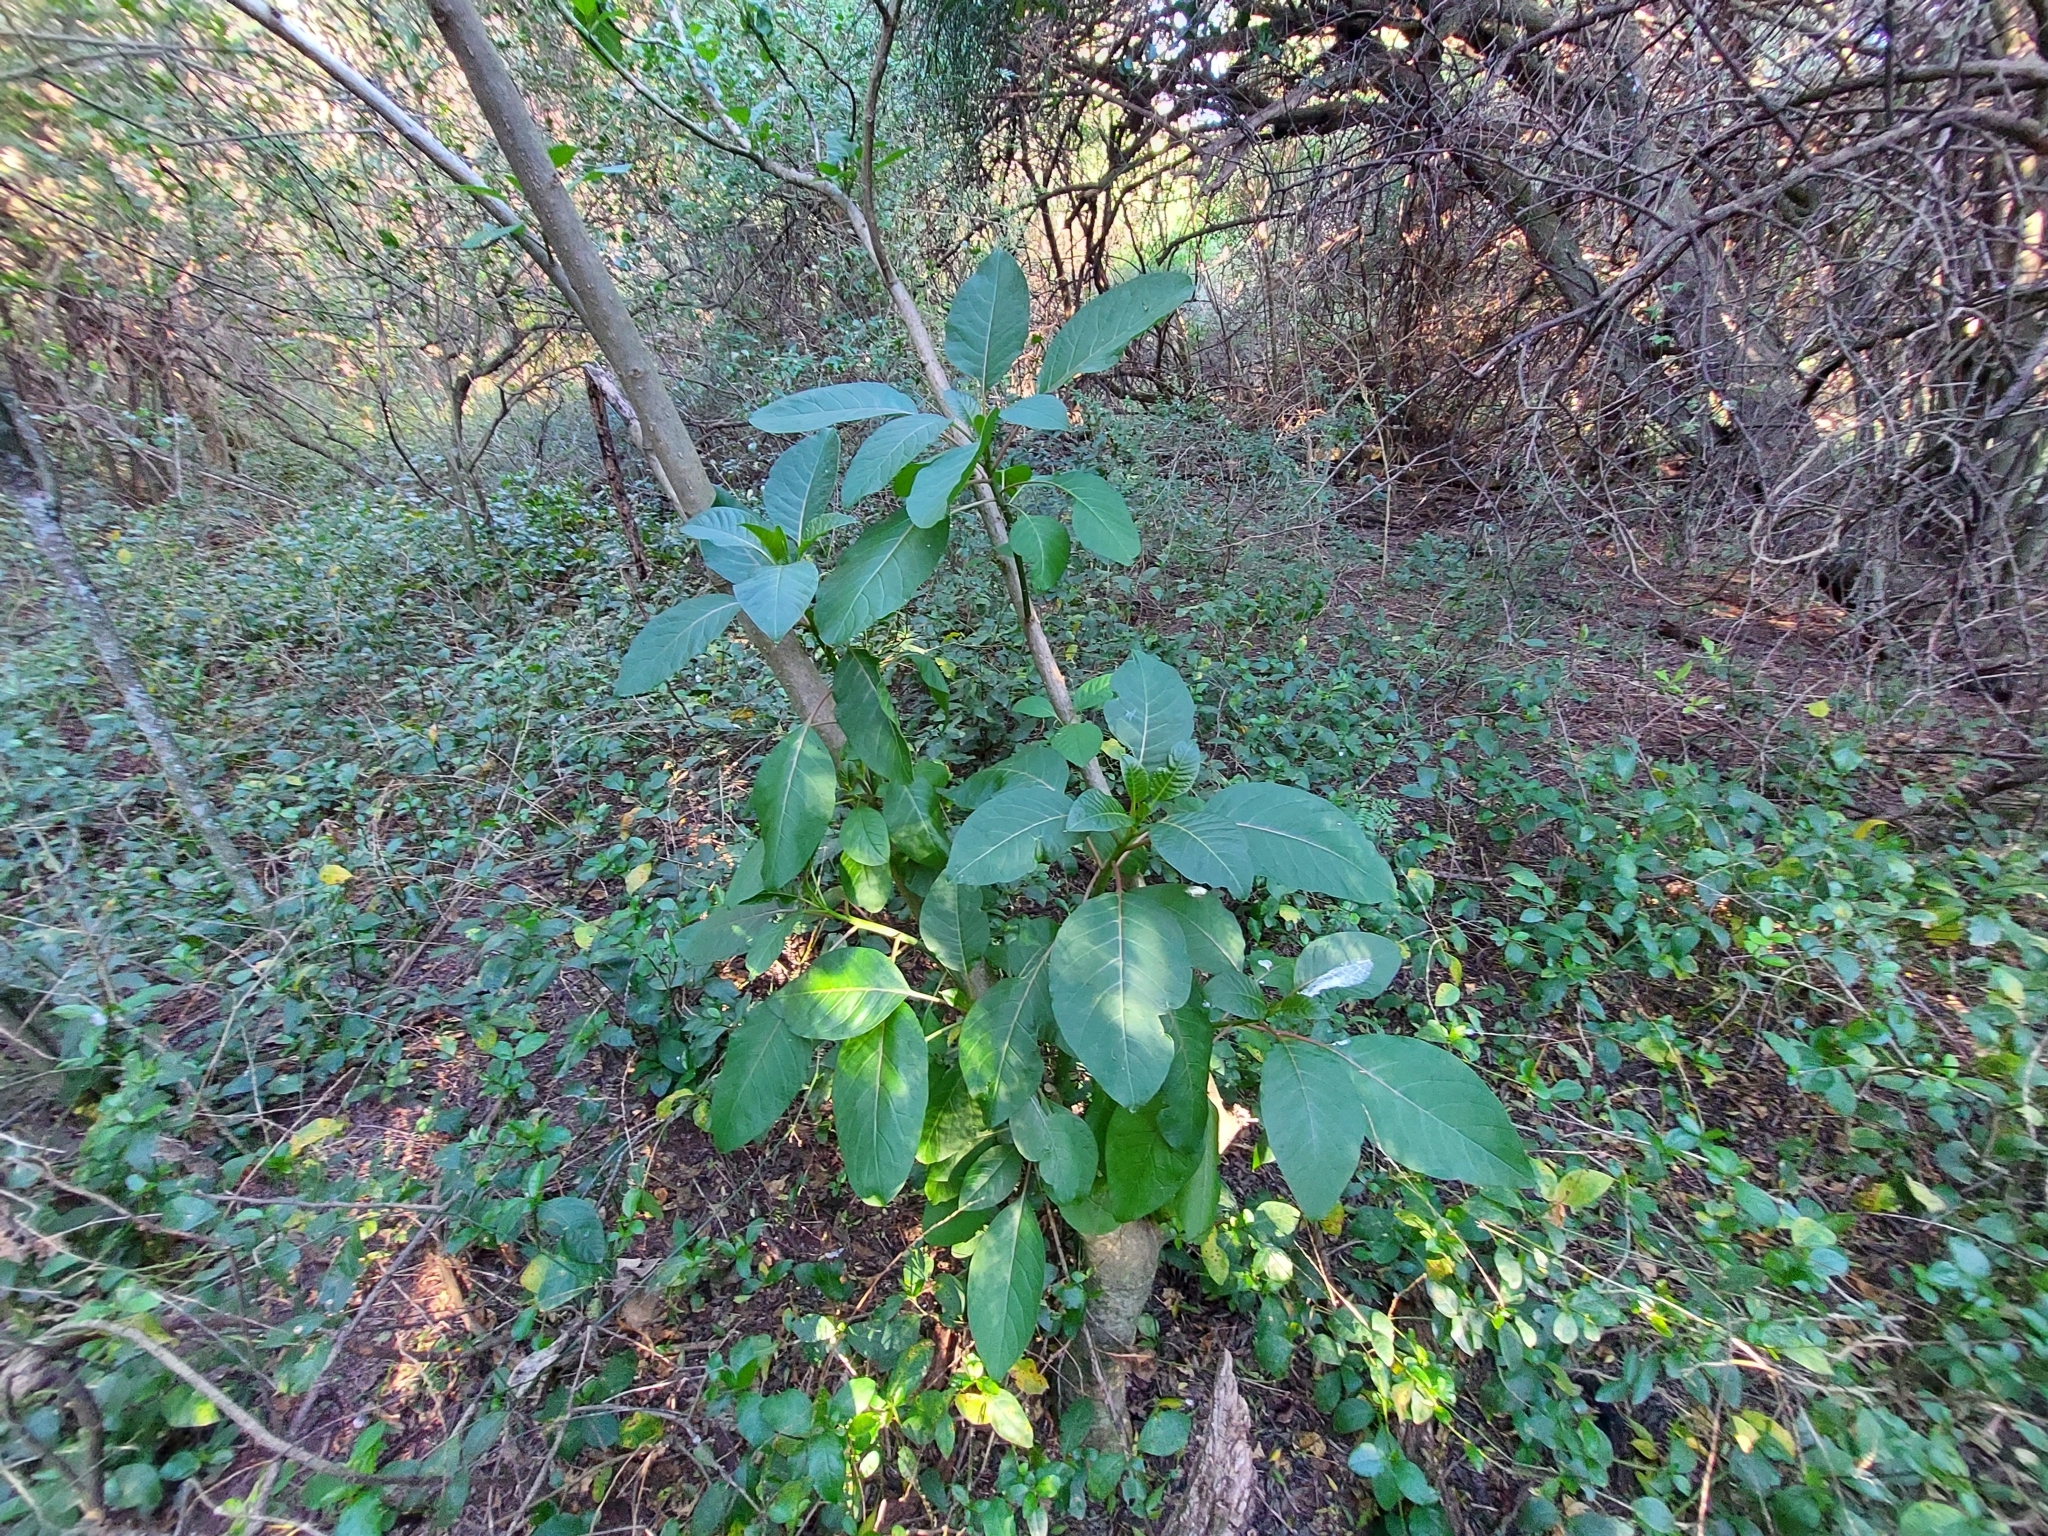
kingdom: Plantae
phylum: Tracheophyta
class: Magnoliopsida
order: Caryophyllales
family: Phytolaccaceae
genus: Phytolacca
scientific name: Phytolacca dioica
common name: Pokeweed
